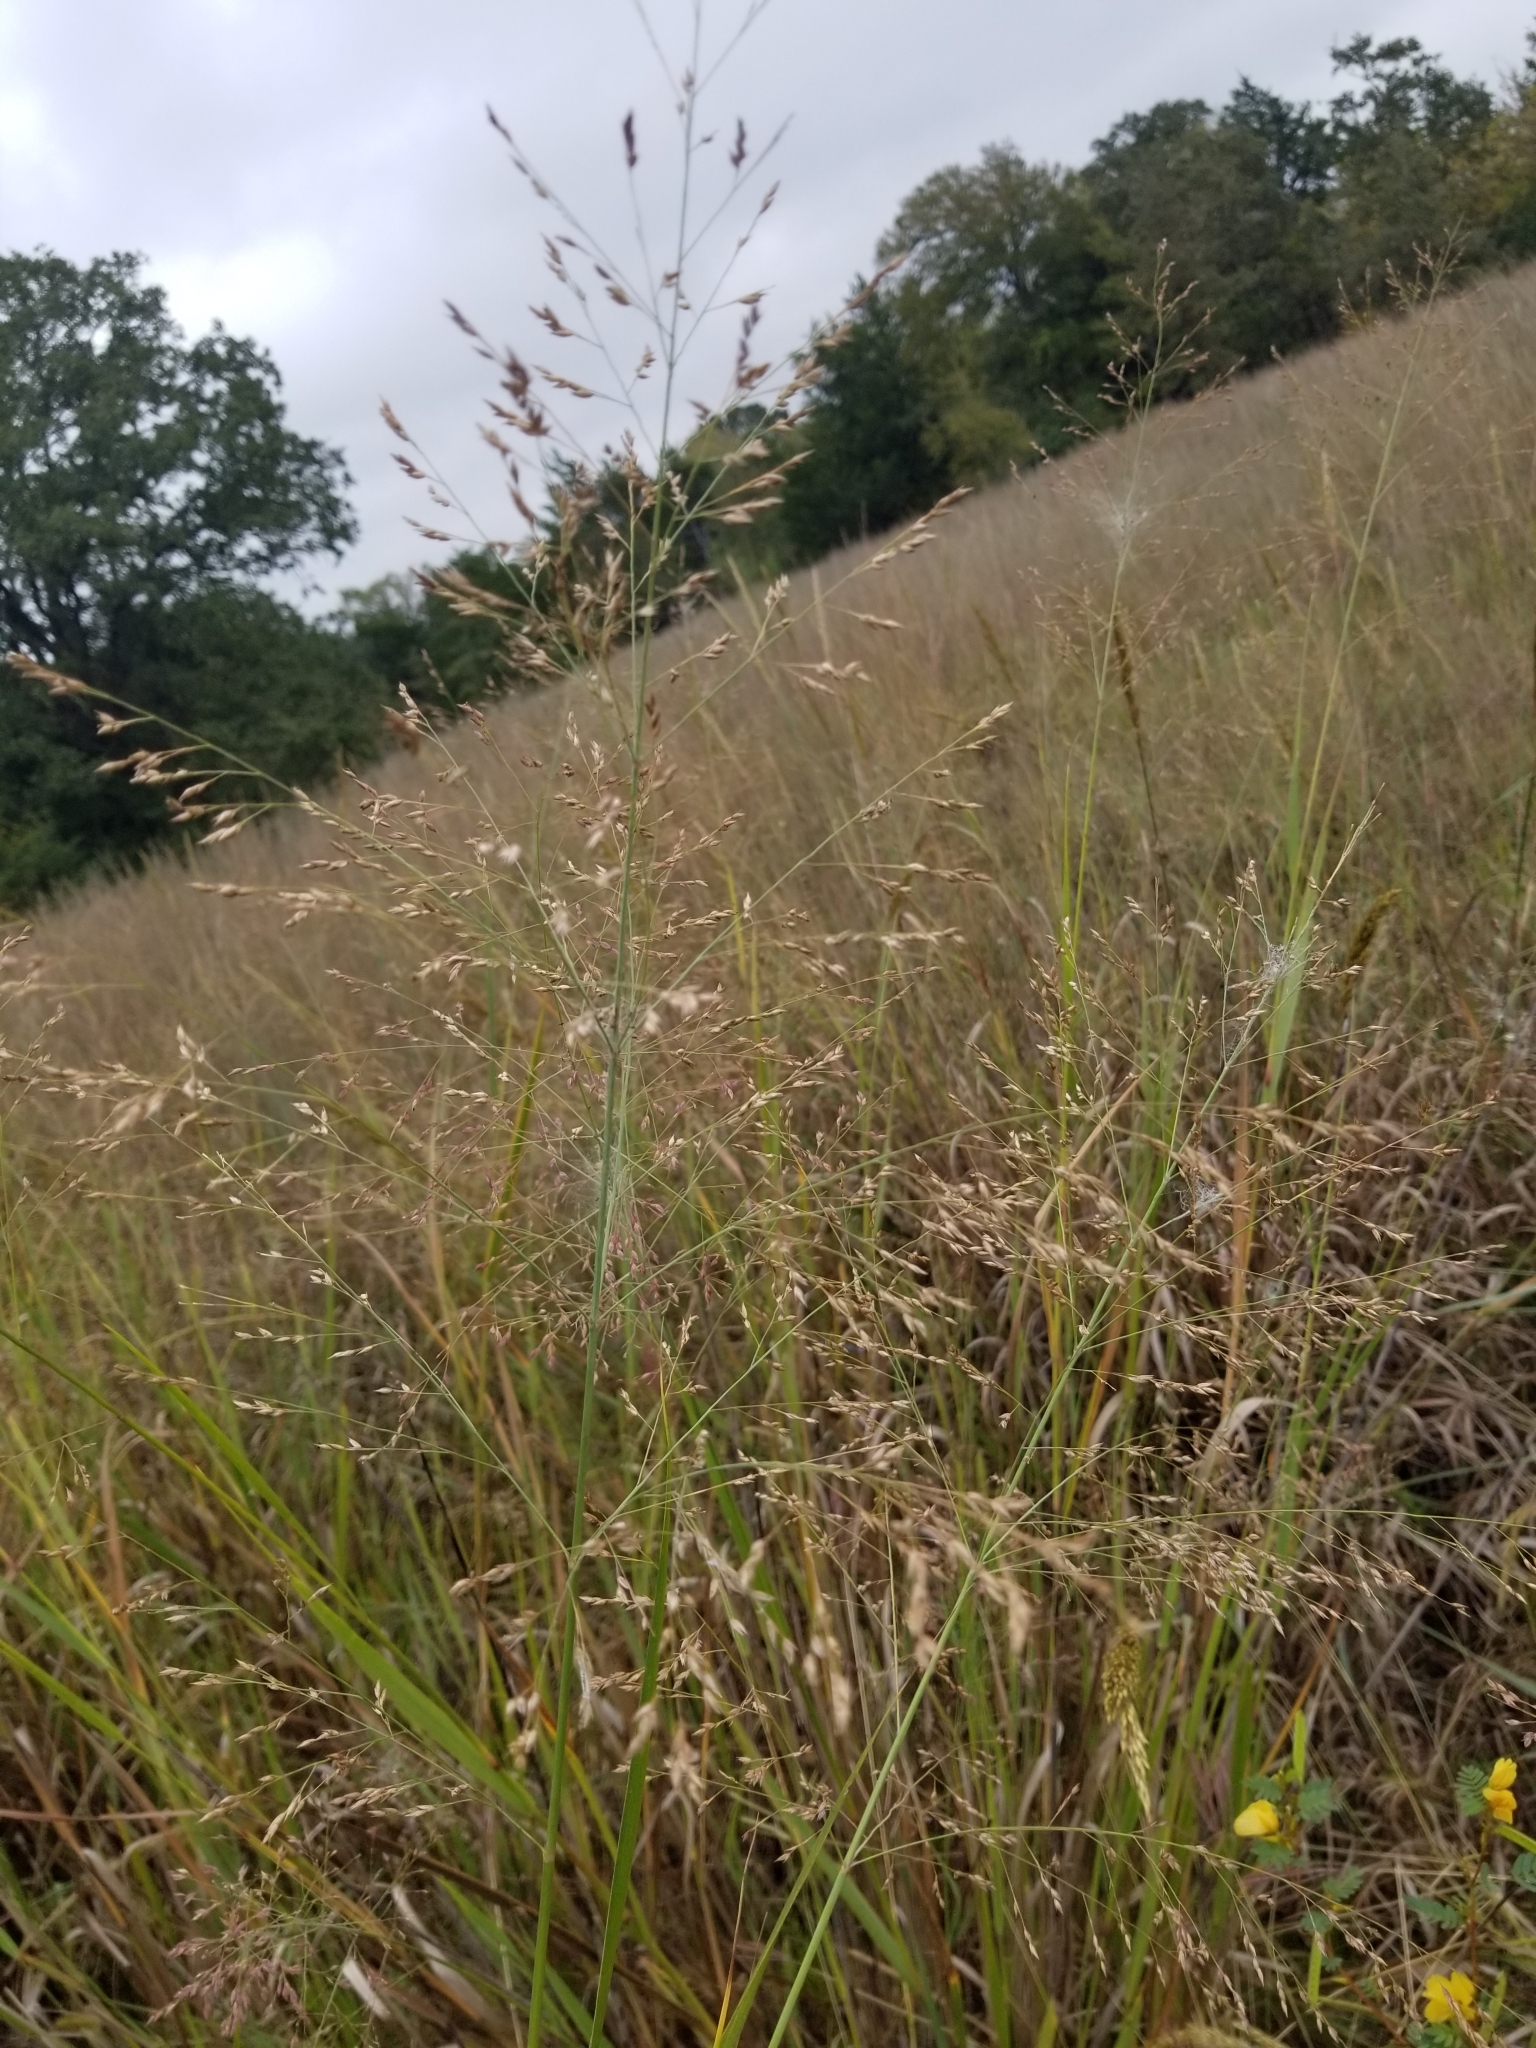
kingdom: Plantae
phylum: Tracheophyta
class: Liliopsida
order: Poales
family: Poaceae
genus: Panicum
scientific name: Panicum virgatum
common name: Switchgrass
